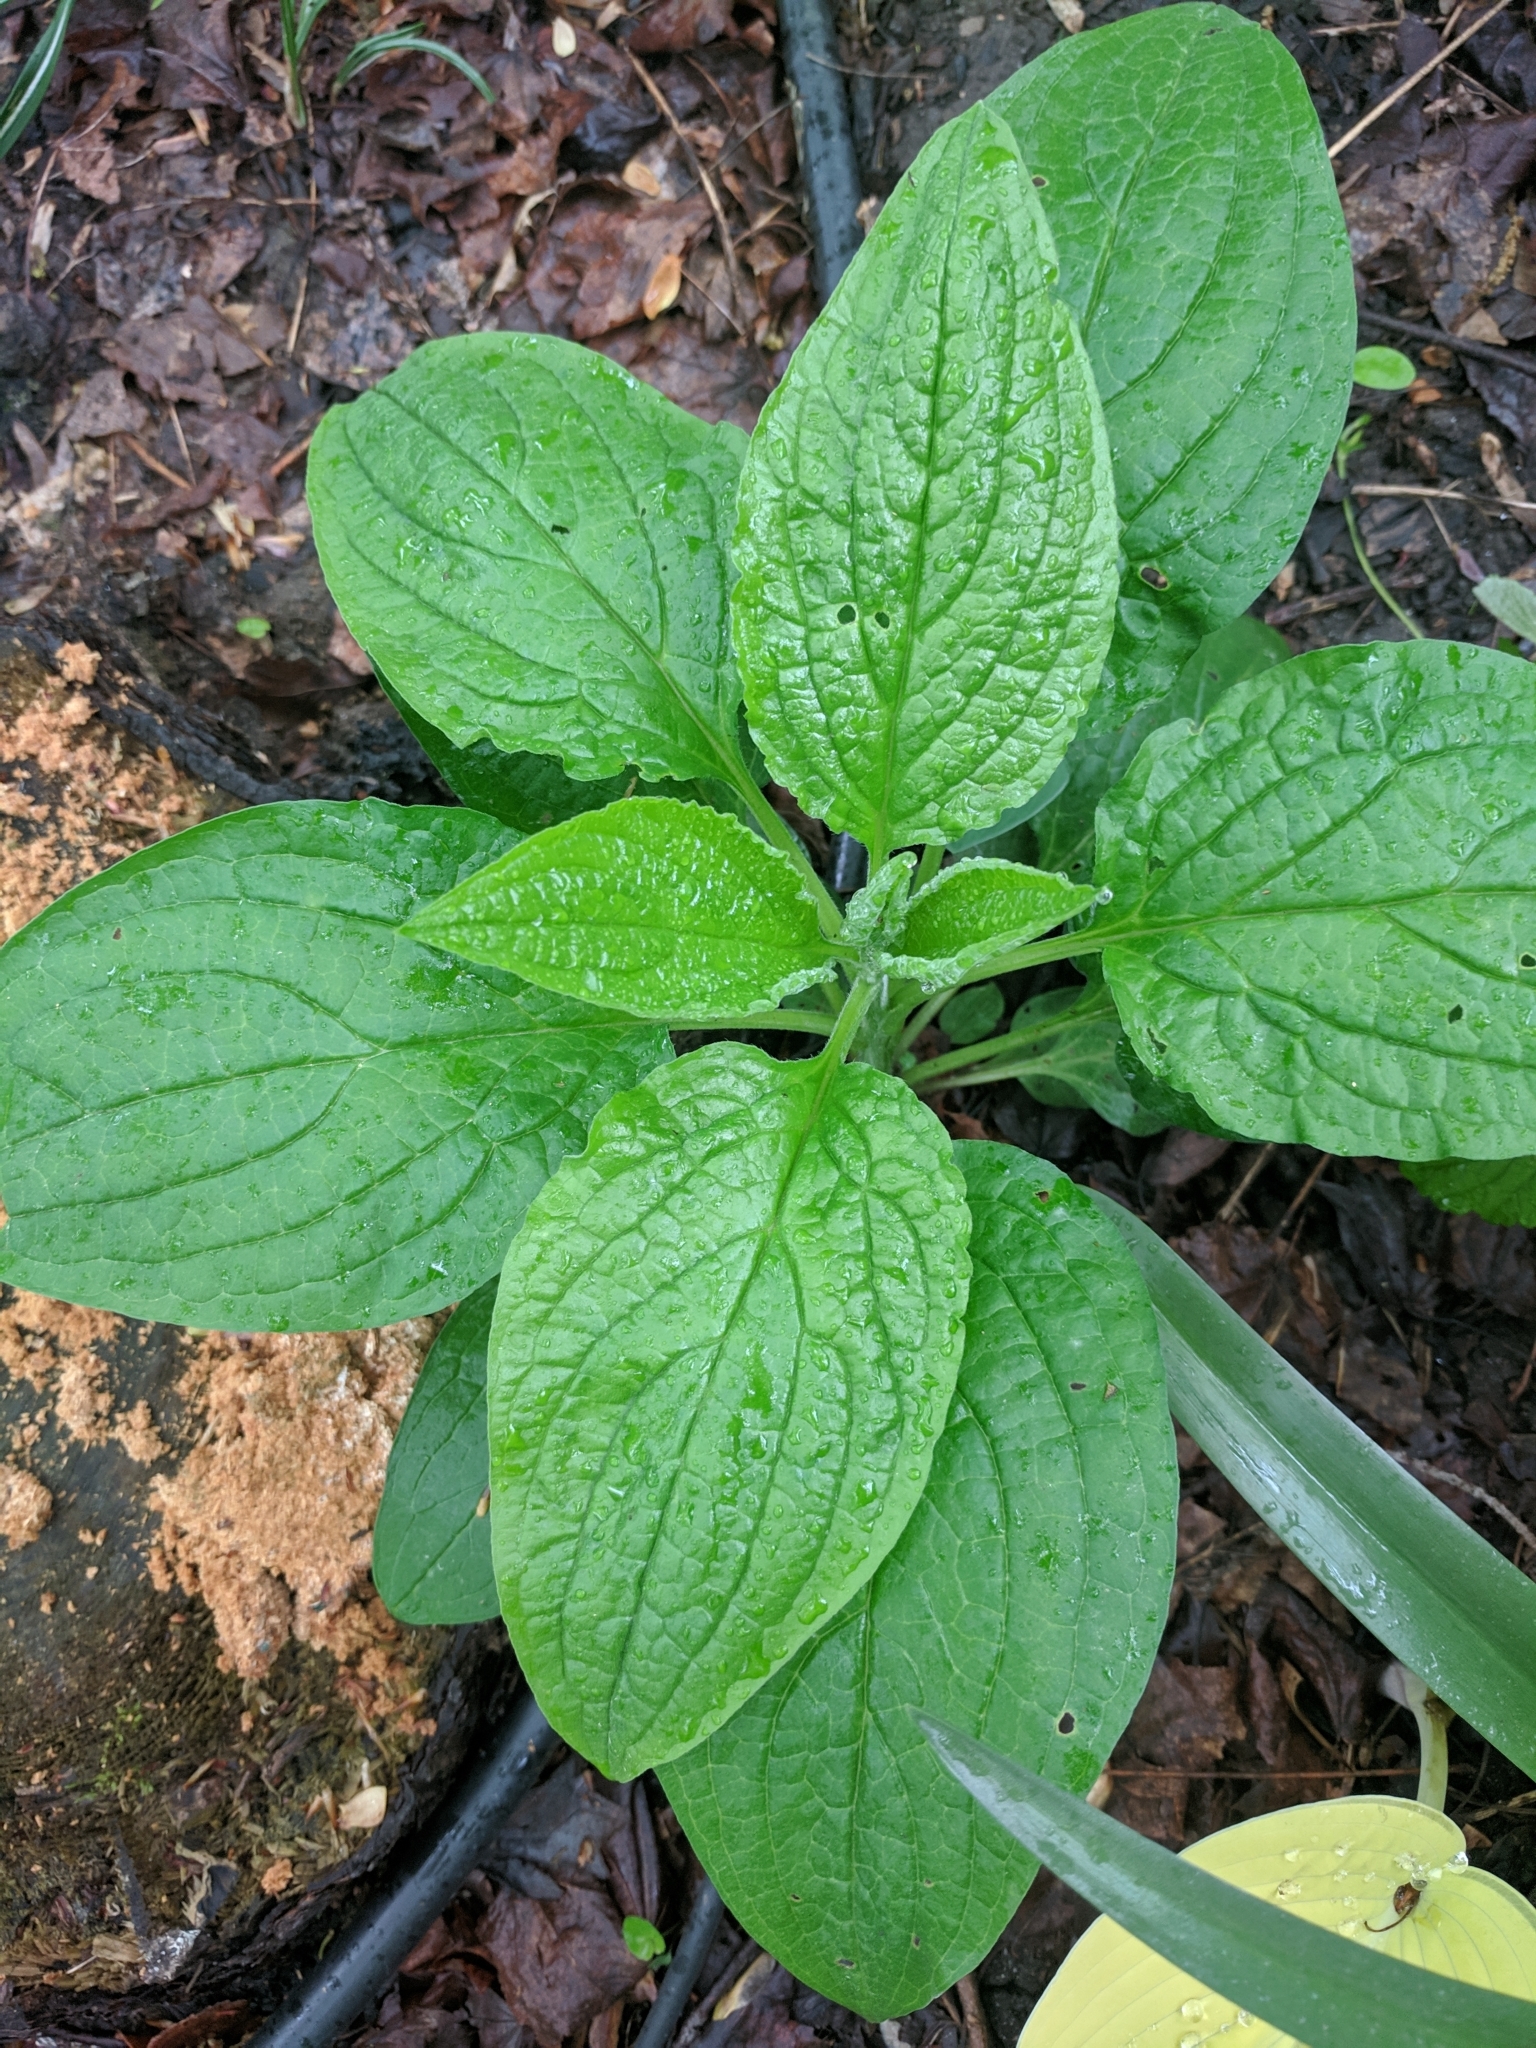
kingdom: Plantae
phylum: Tracheophyta
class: Magnoliopsida
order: Boraginales
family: Boraginaceae
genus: Hackelia
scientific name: Hackelia virginiana
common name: Beggar's-lice
